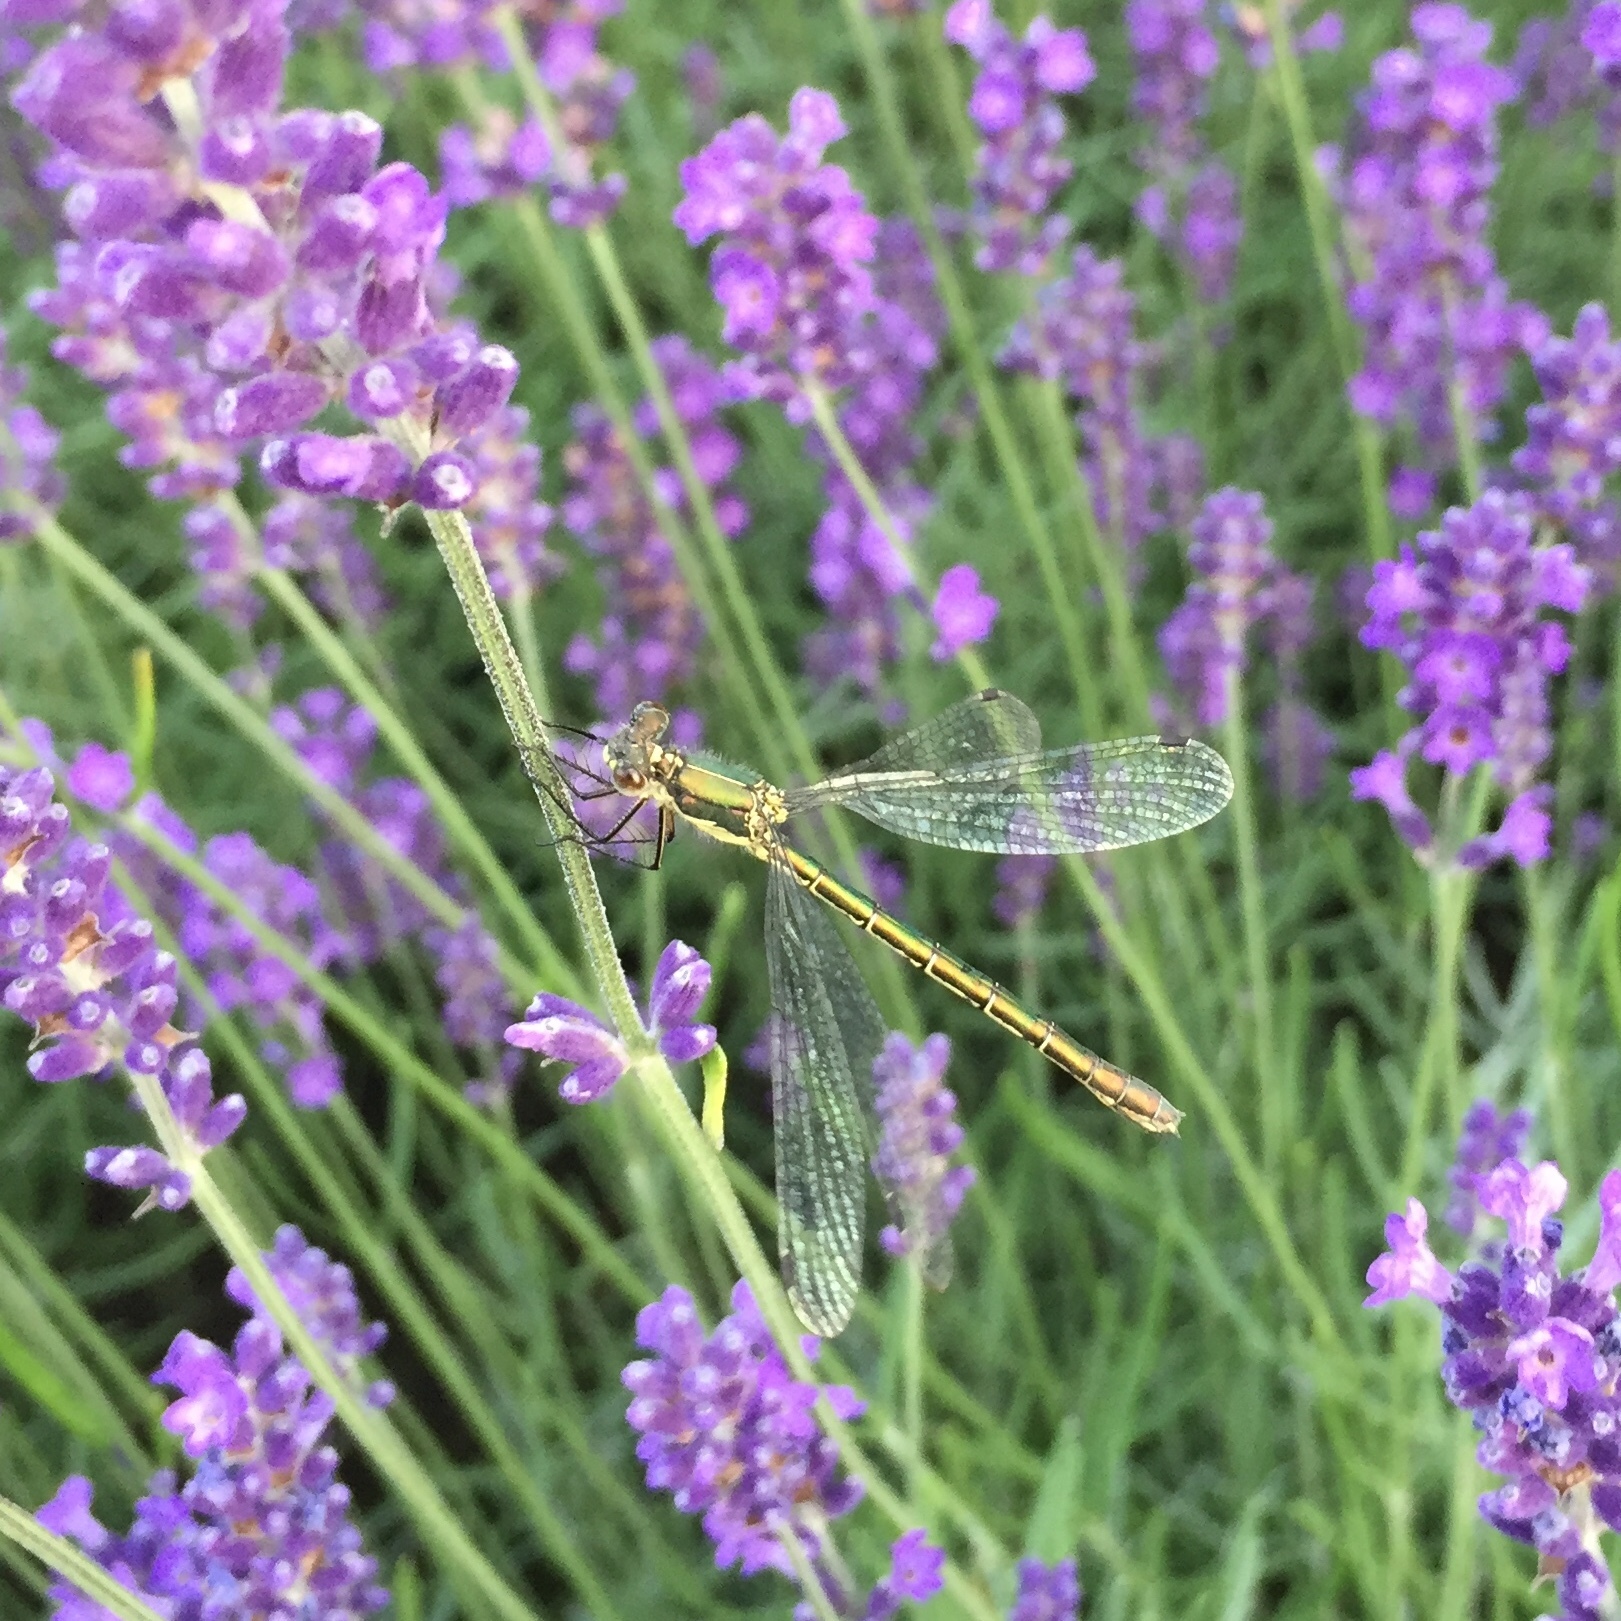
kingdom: Animalia
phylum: Arthropoda
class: Insecta
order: Odonata
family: Lestidae
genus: Lestes
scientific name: Lestes dryas
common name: Scarce emerald damselfly
